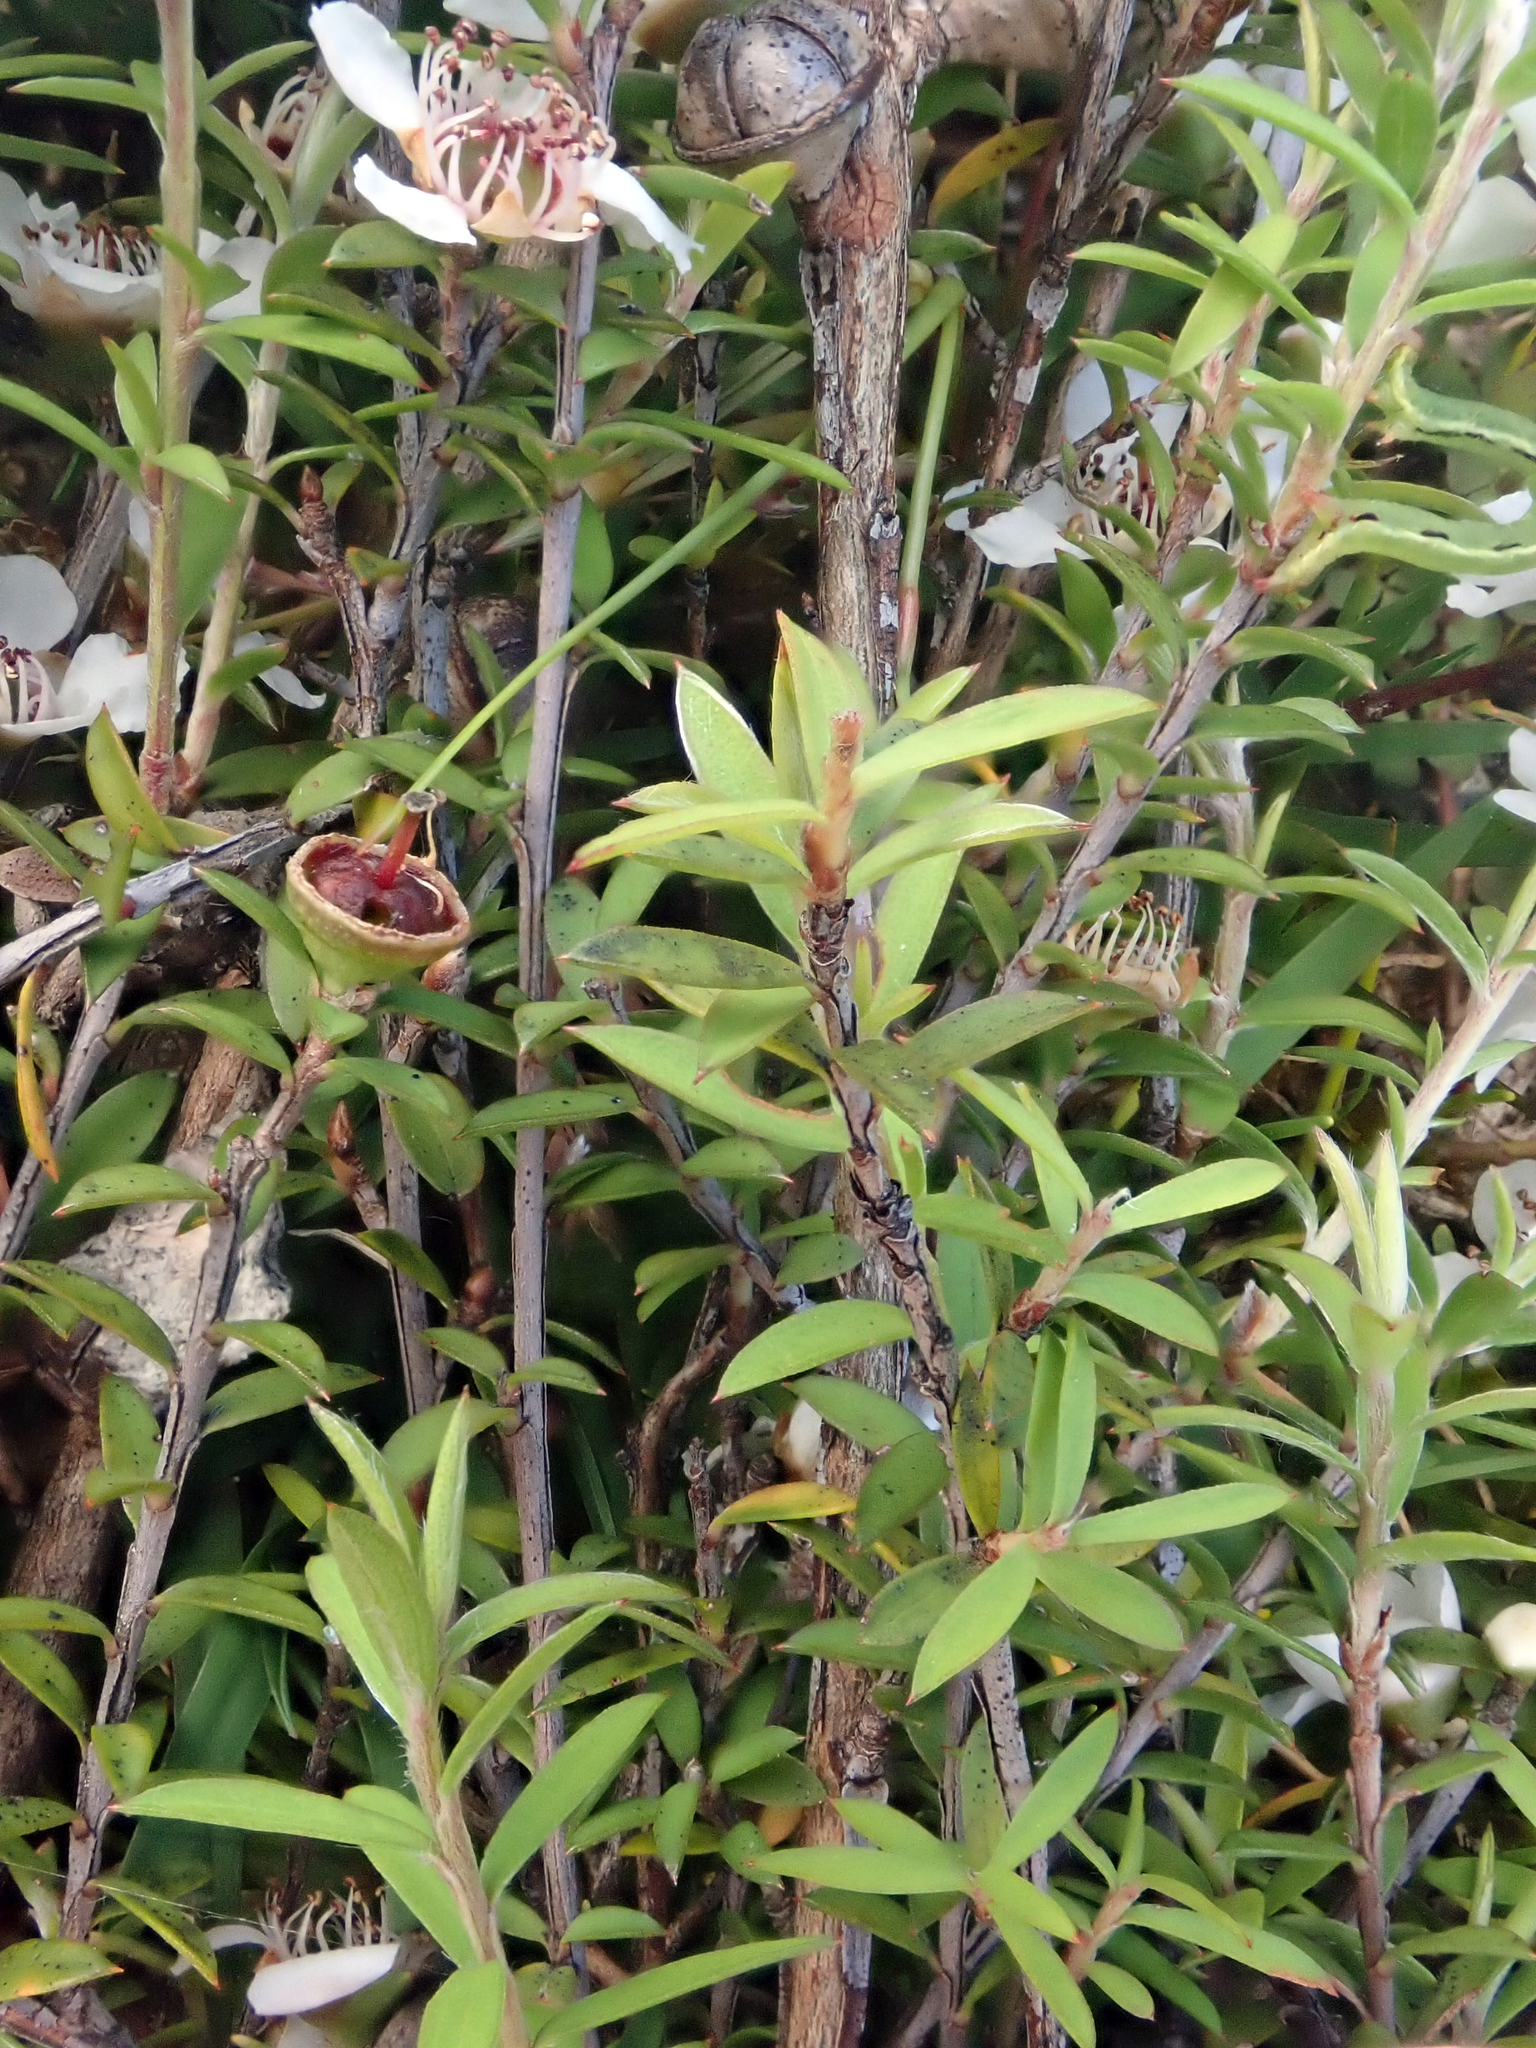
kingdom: Plantae
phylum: Tracheophyta
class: Magnoliopsida
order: Myrtales
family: Myrtaceae
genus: Leptospermum
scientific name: Leptospermum scoparium
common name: Broom tea-tree
